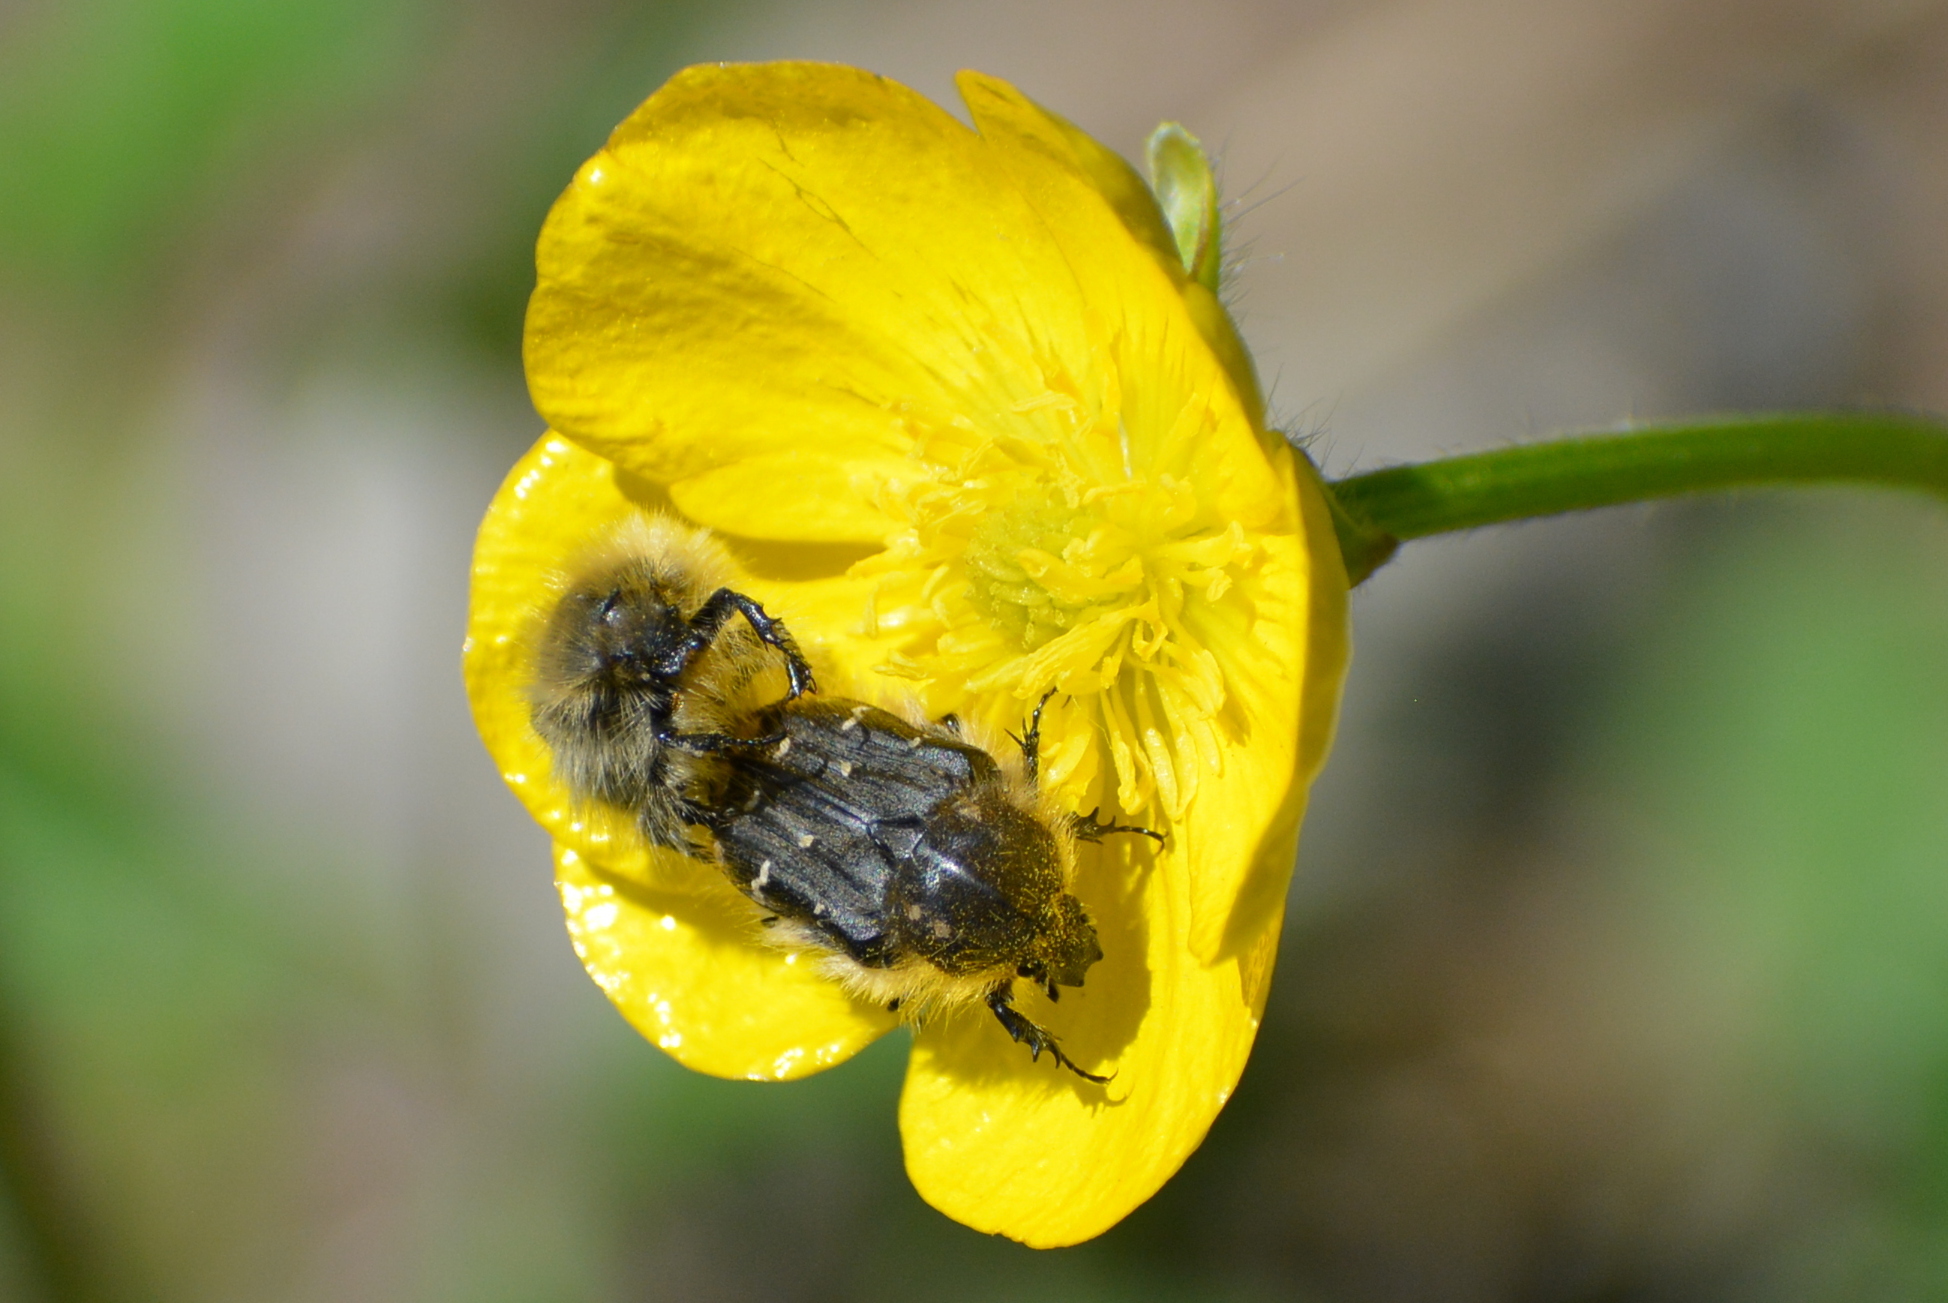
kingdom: Animalia
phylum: Arthropoda
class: Insecta
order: Coleoptera
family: Scarabaeidae
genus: Tropinota
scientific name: Tropinota hirta
